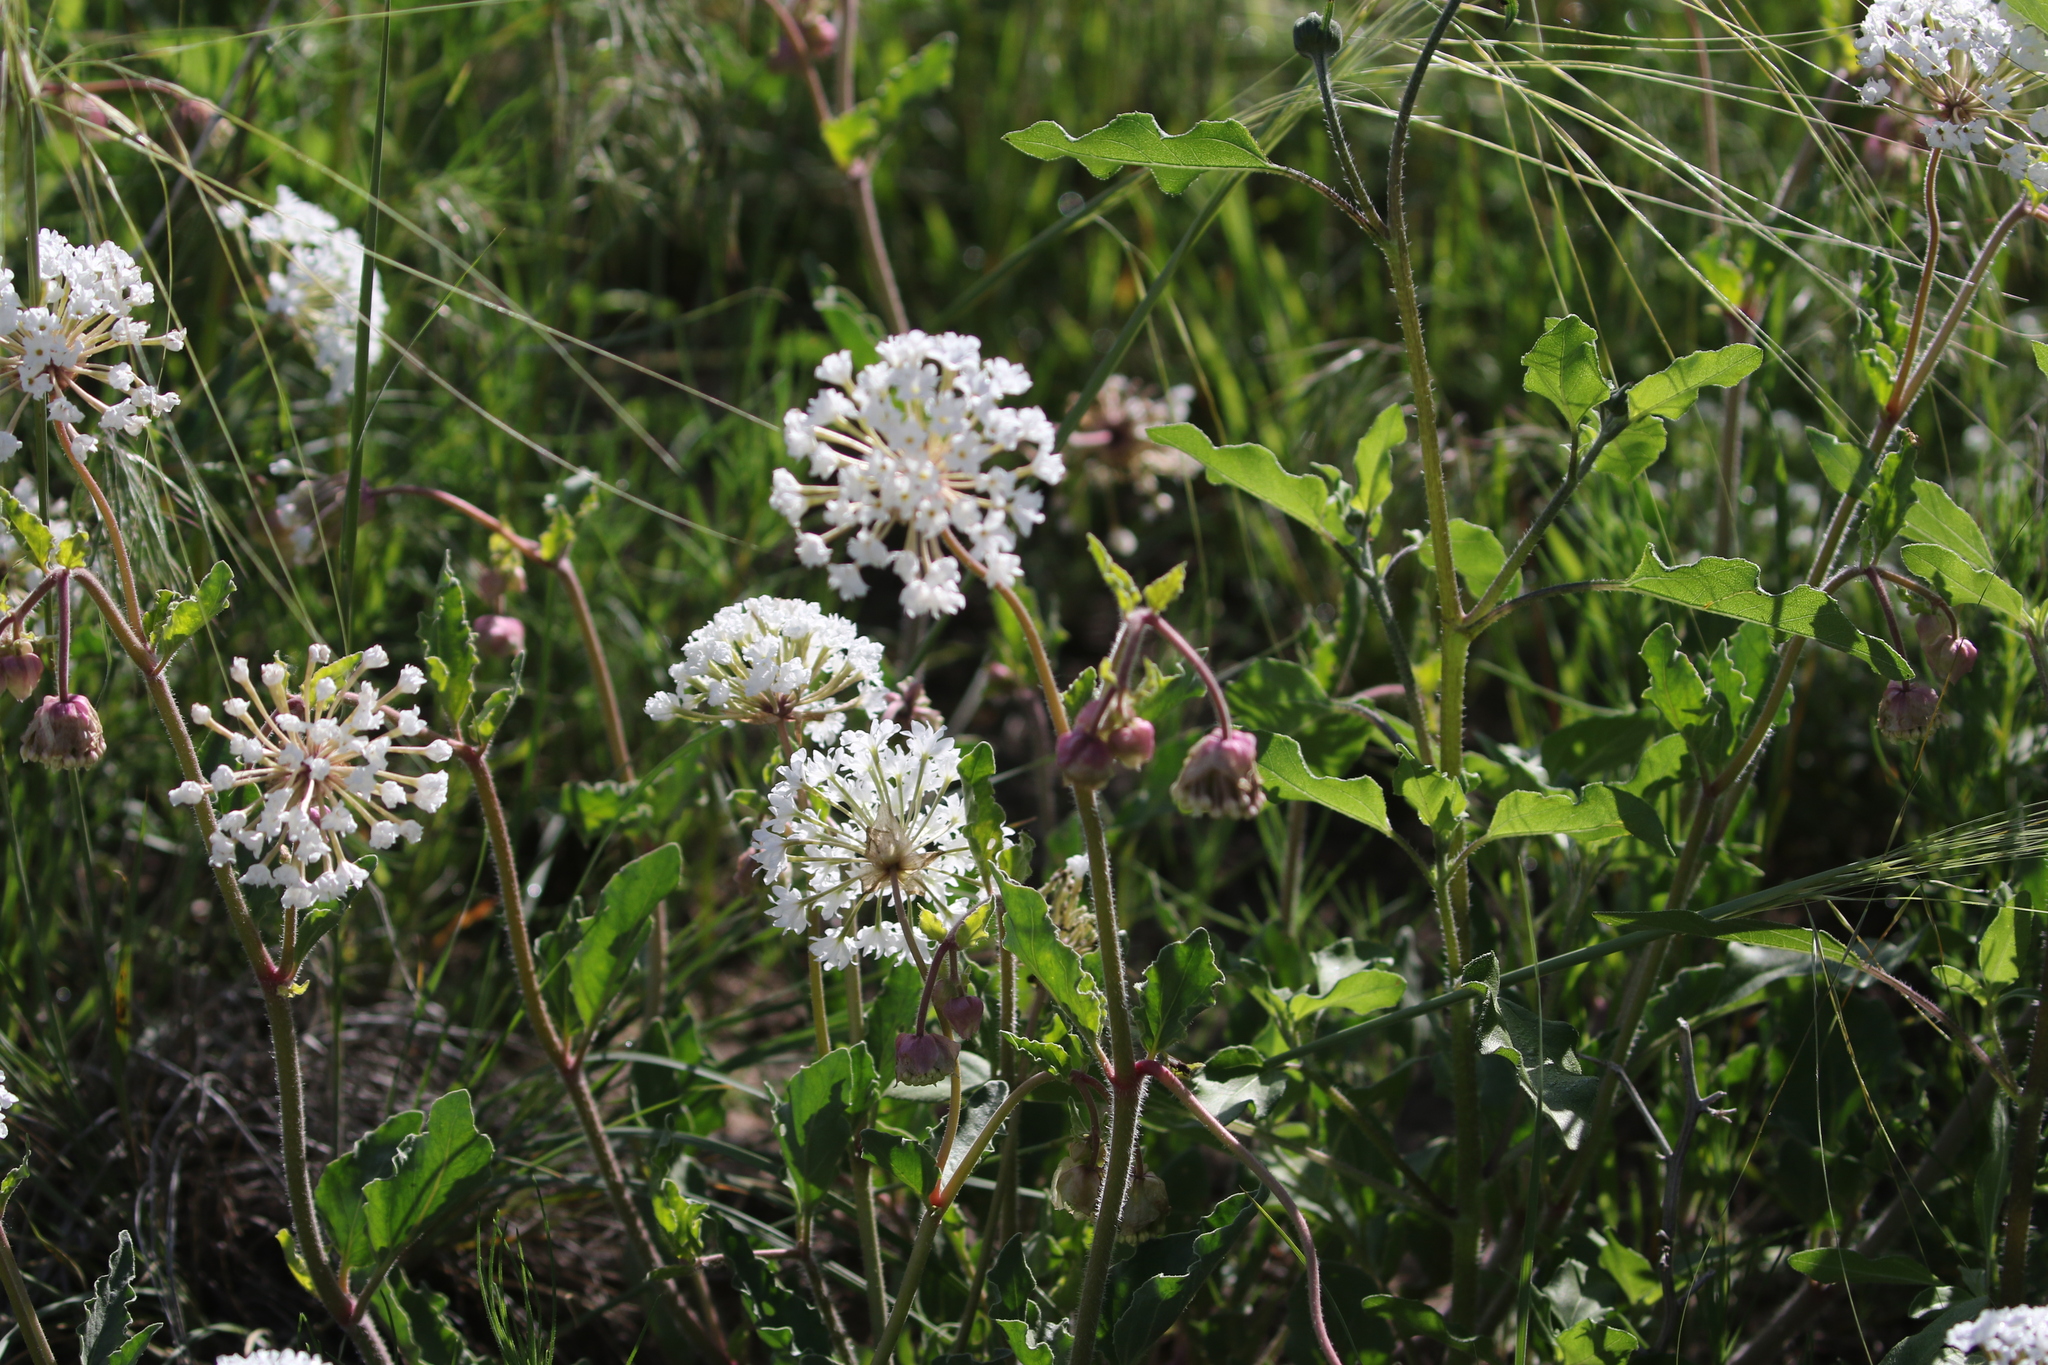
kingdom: Plantae
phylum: Tracheophyta
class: Magnoliopsida
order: Caryophyllales
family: Nyctaginaceae
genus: Abronia
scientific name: Abronia fragrans
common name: Fragrant sand-verbena
